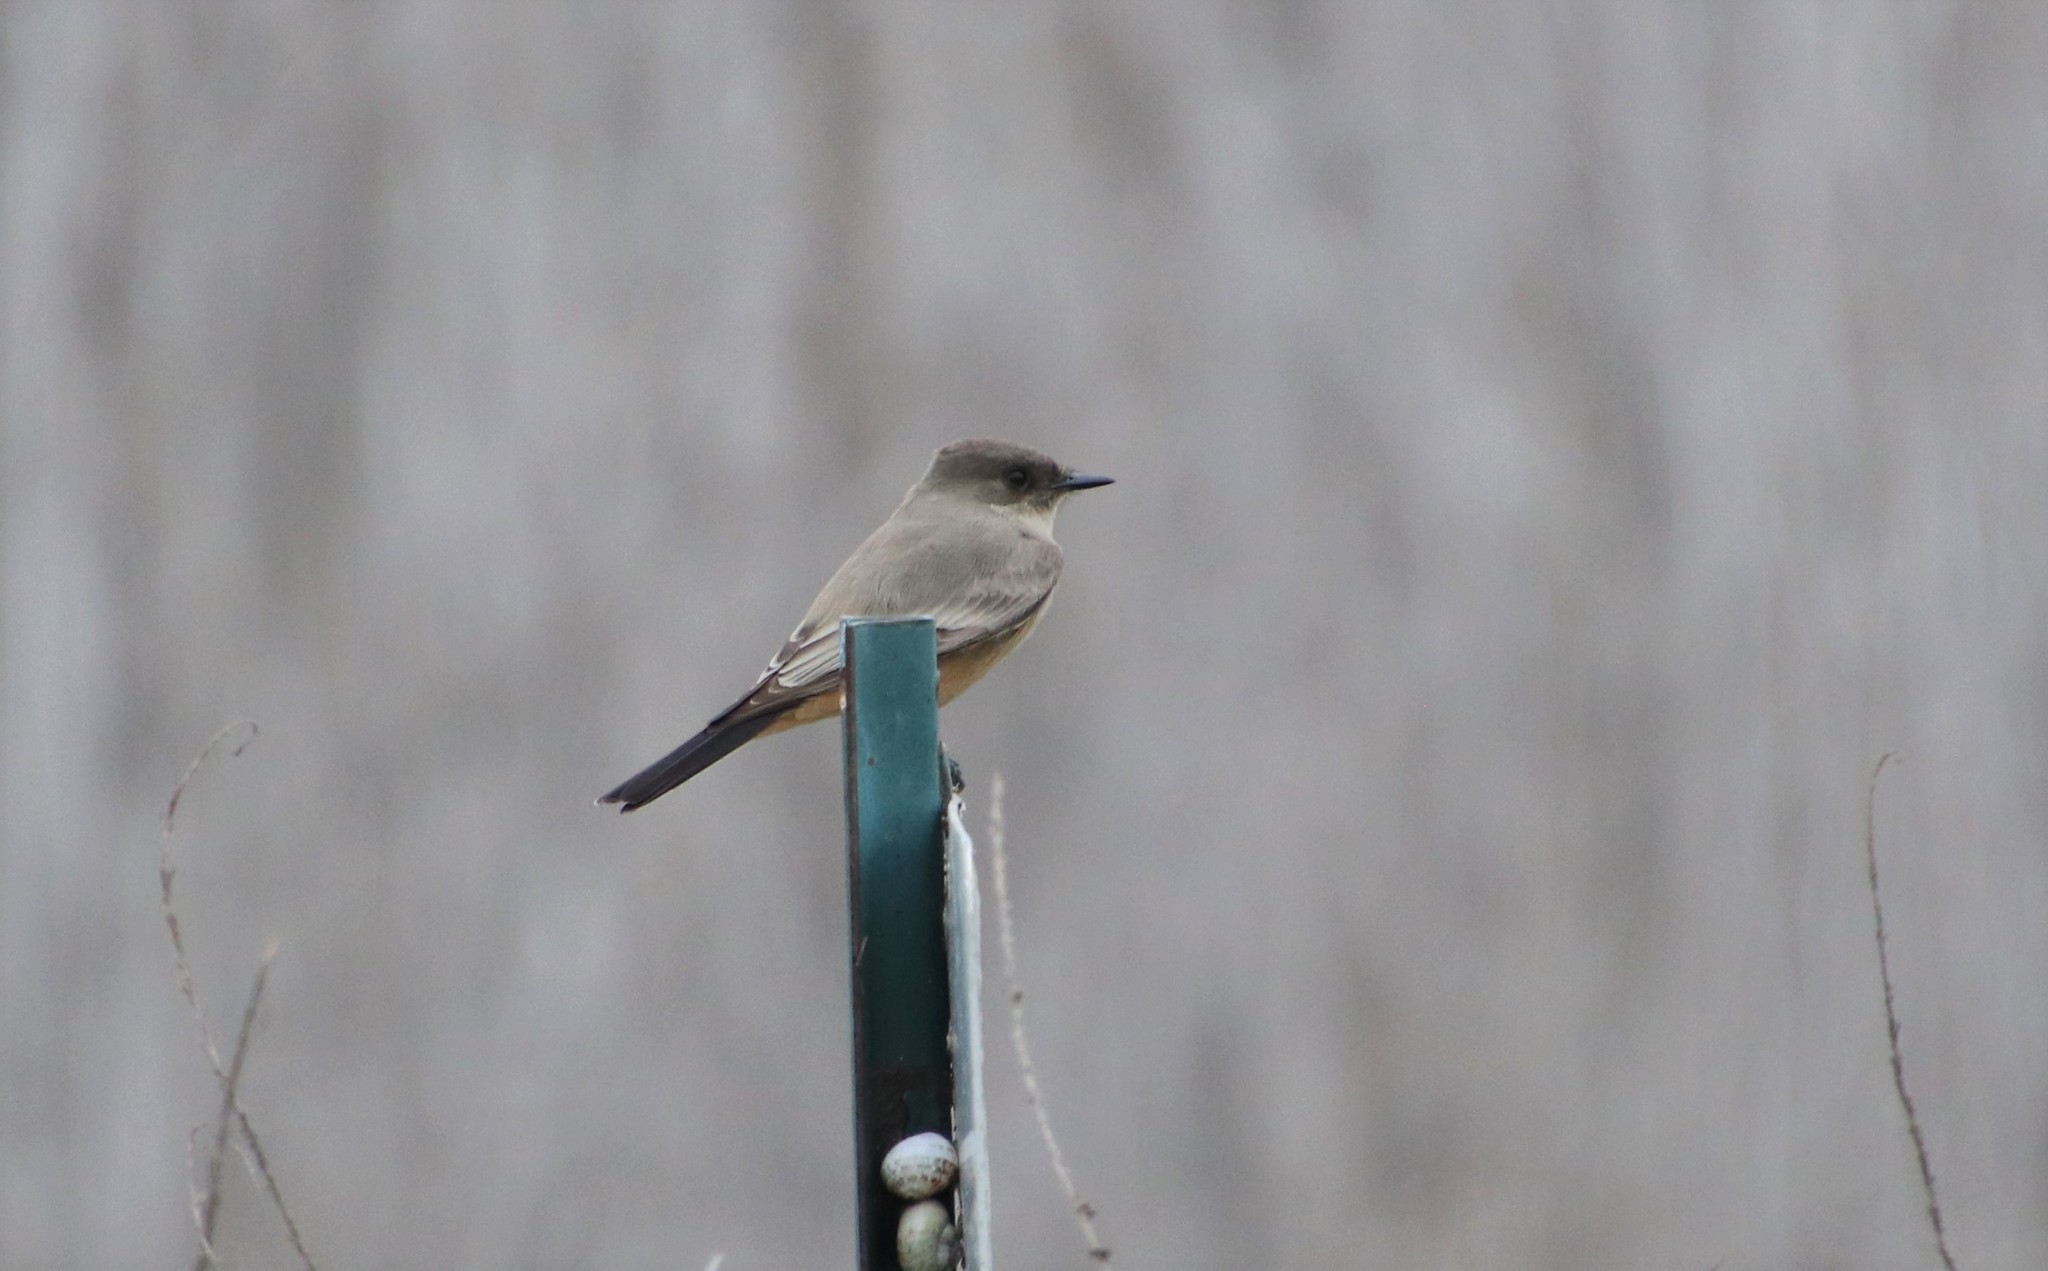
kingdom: Animalia
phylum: Chordata
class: Aves
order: Passeriformes
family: Tyrannidae
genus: Sayornis
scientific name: Sayornis saya
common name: Say's phoebe
